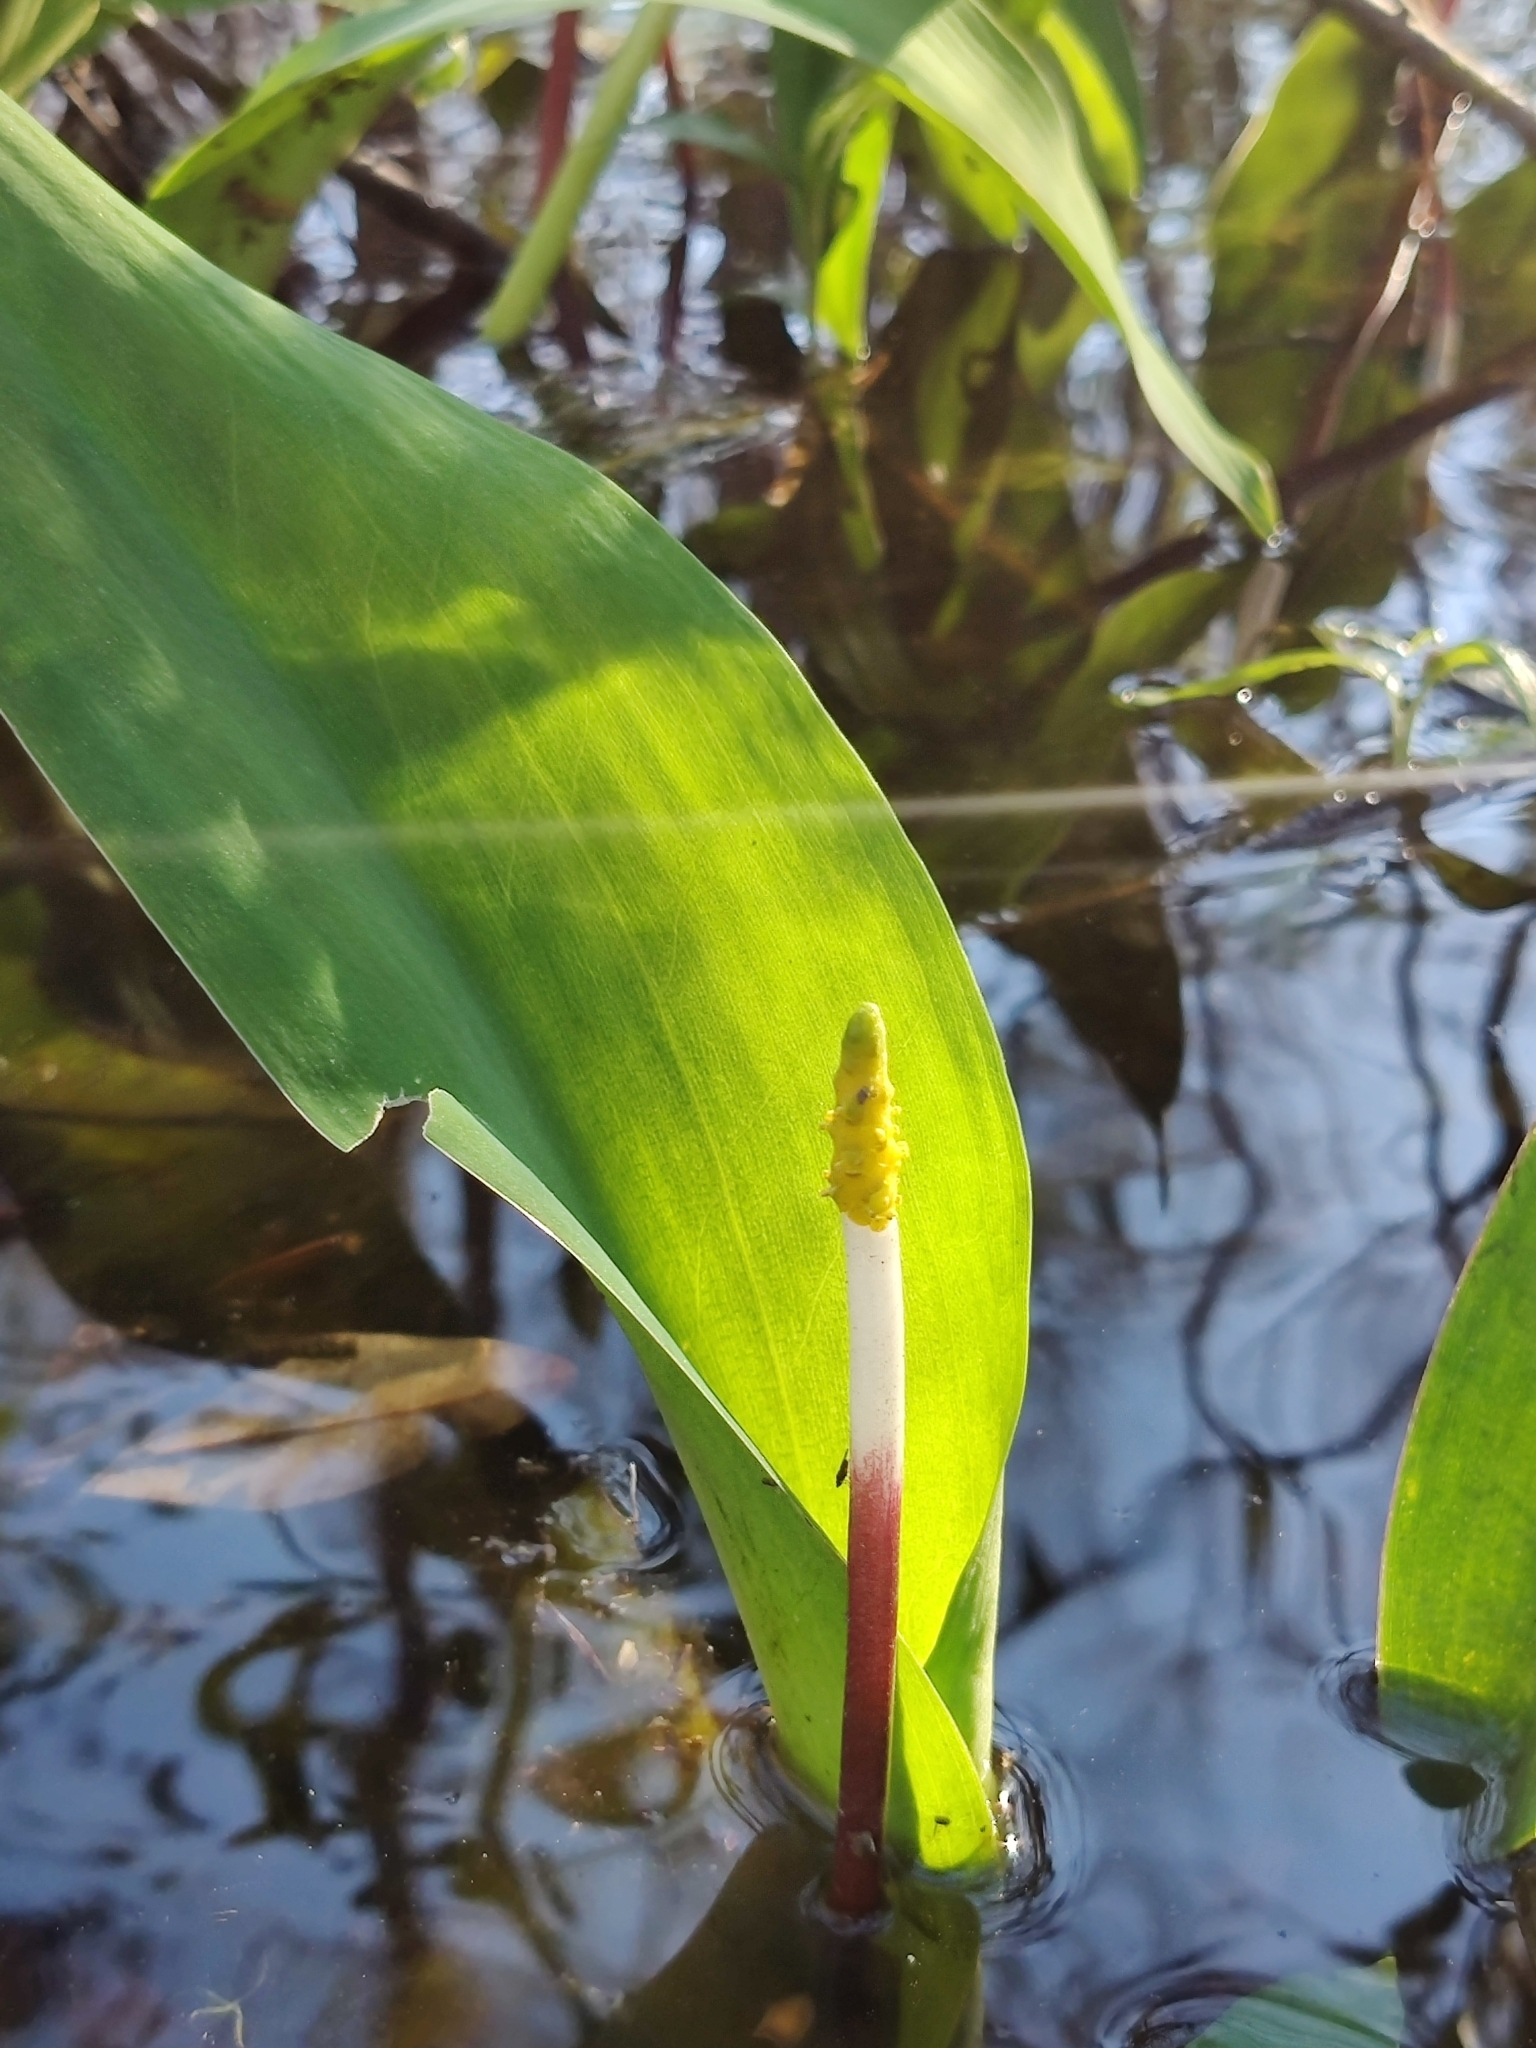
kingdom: Plantae
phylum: Tracheophyta
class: Liliopsida
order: Alismatales
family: Araceae
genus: Orontium
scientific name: Orontium aquaticum
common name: Golden-club
